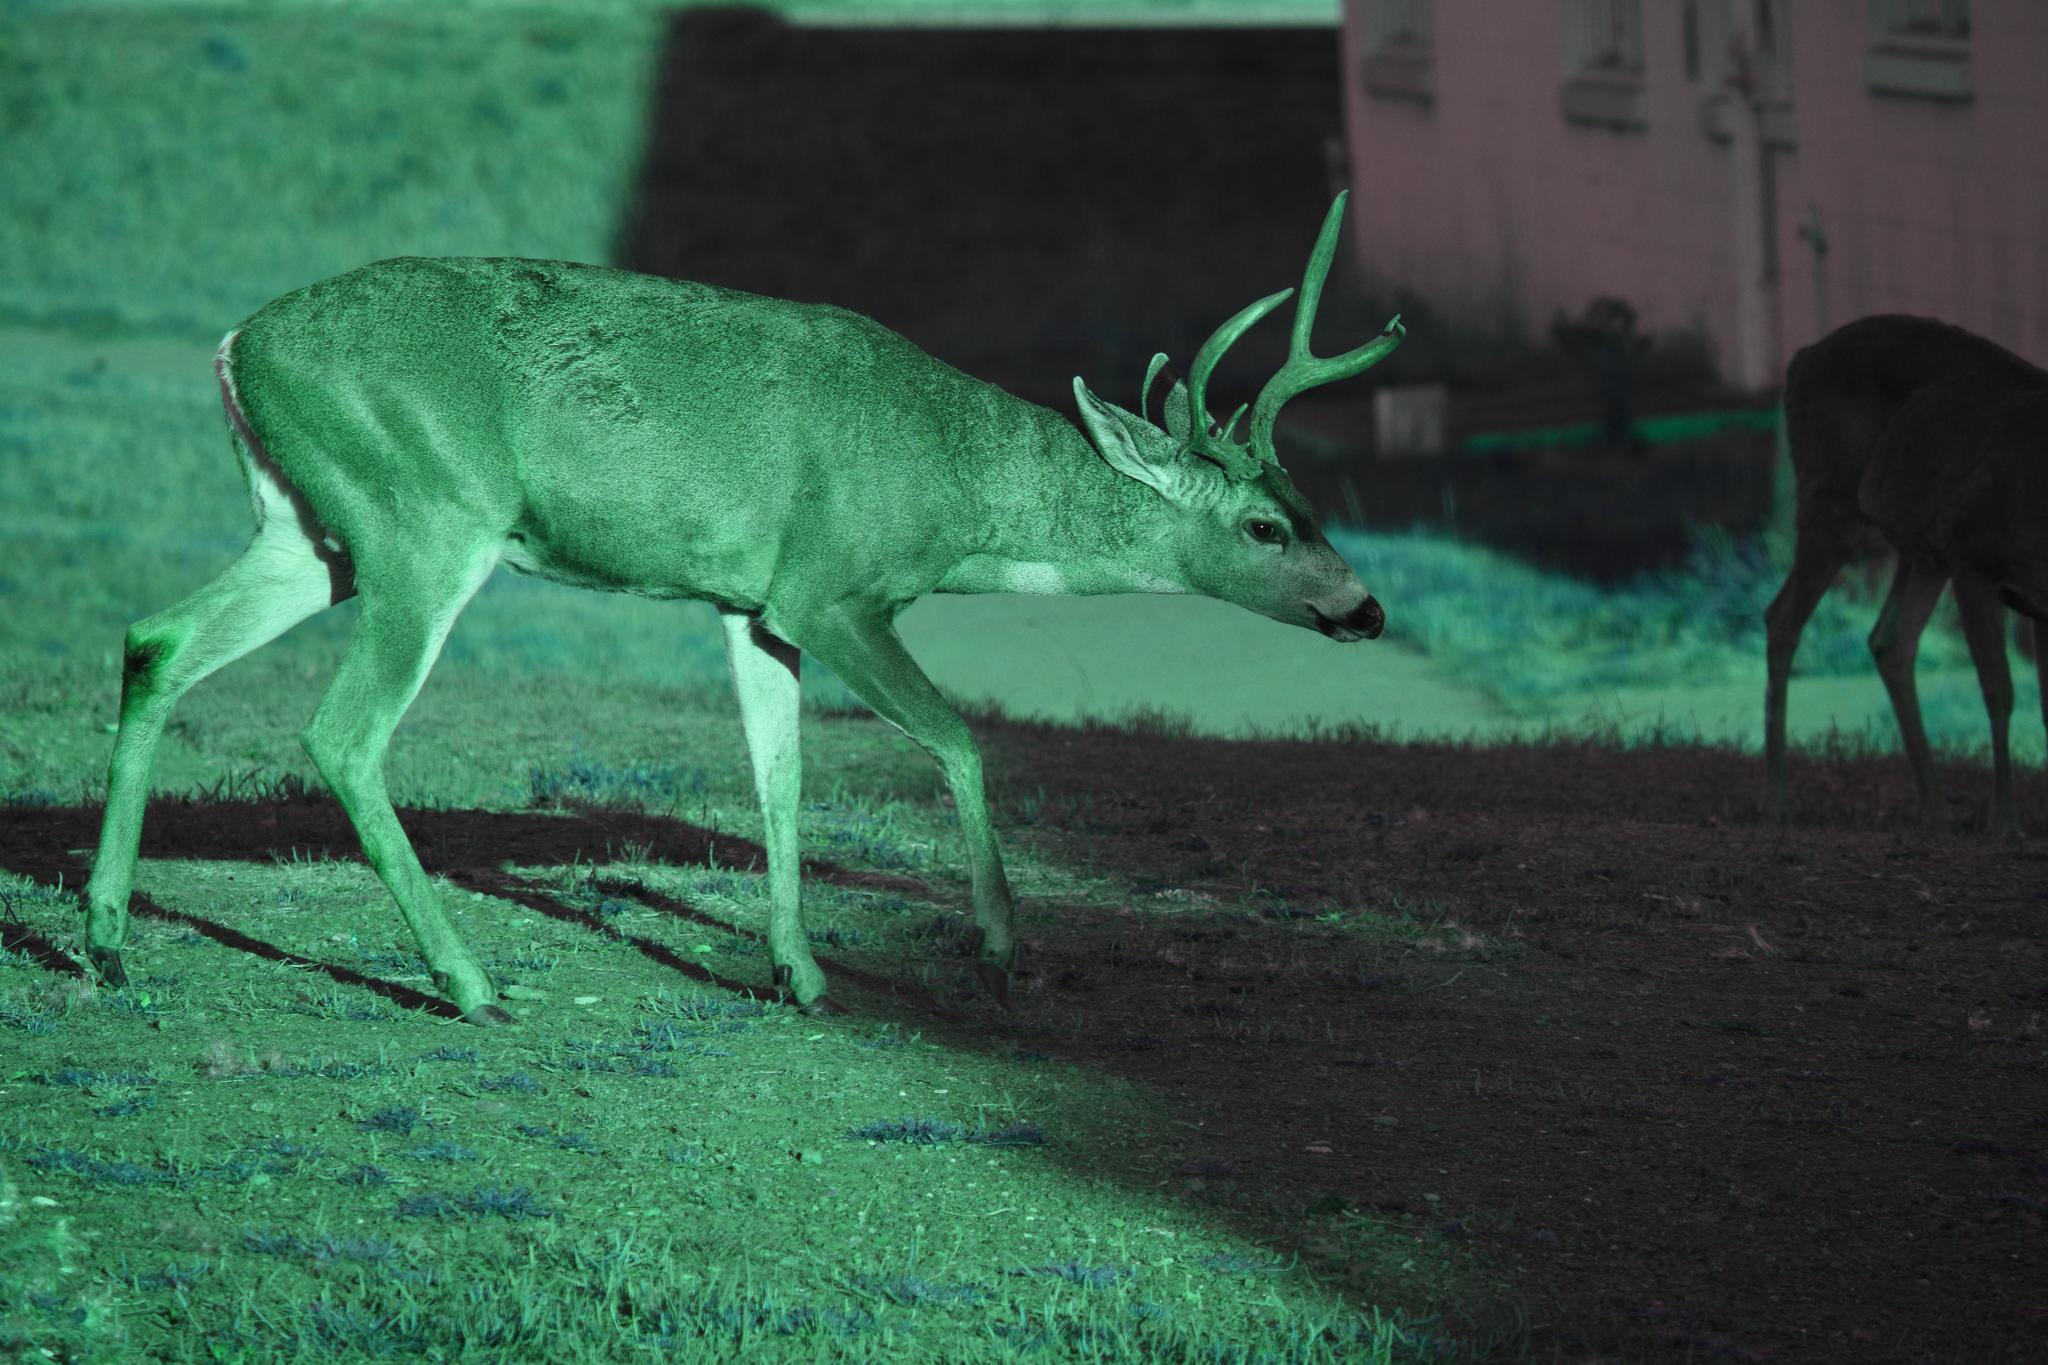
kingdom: Animalia
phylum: Chordata
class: Mammalia
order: Artiodactyla
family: Cervidae
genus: Odocoileus
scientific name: Odocoileus hemionus
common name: Mule deer
